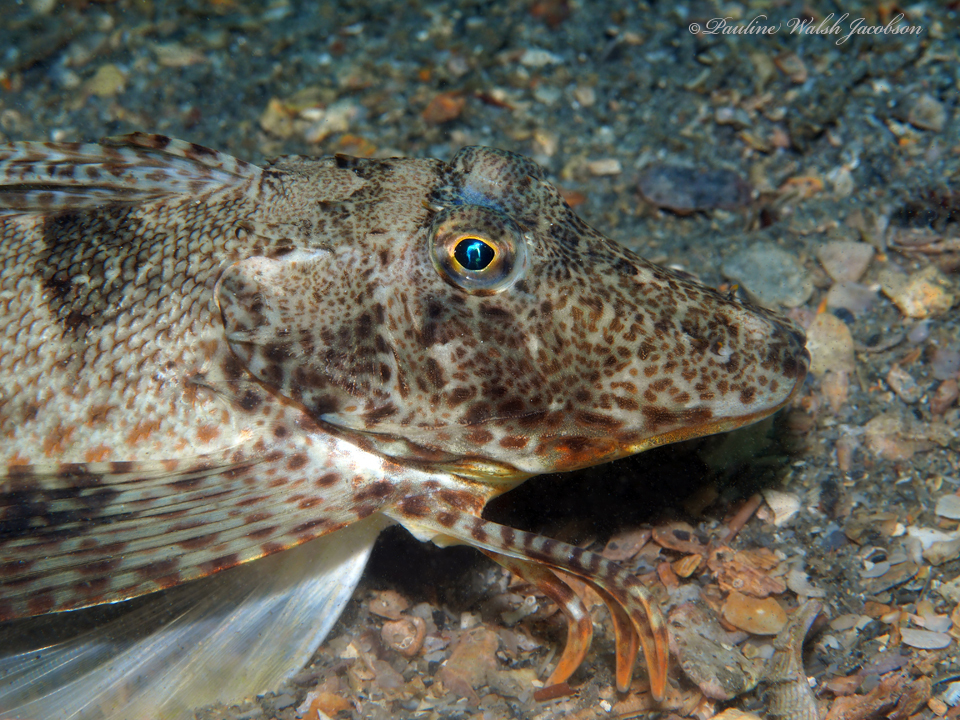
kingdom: Animalia
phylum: Chordata
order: Scorpaeniformes
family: Triglidae
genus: Prionotus
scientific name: Prionotus scitulus
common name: Leopard searobin
